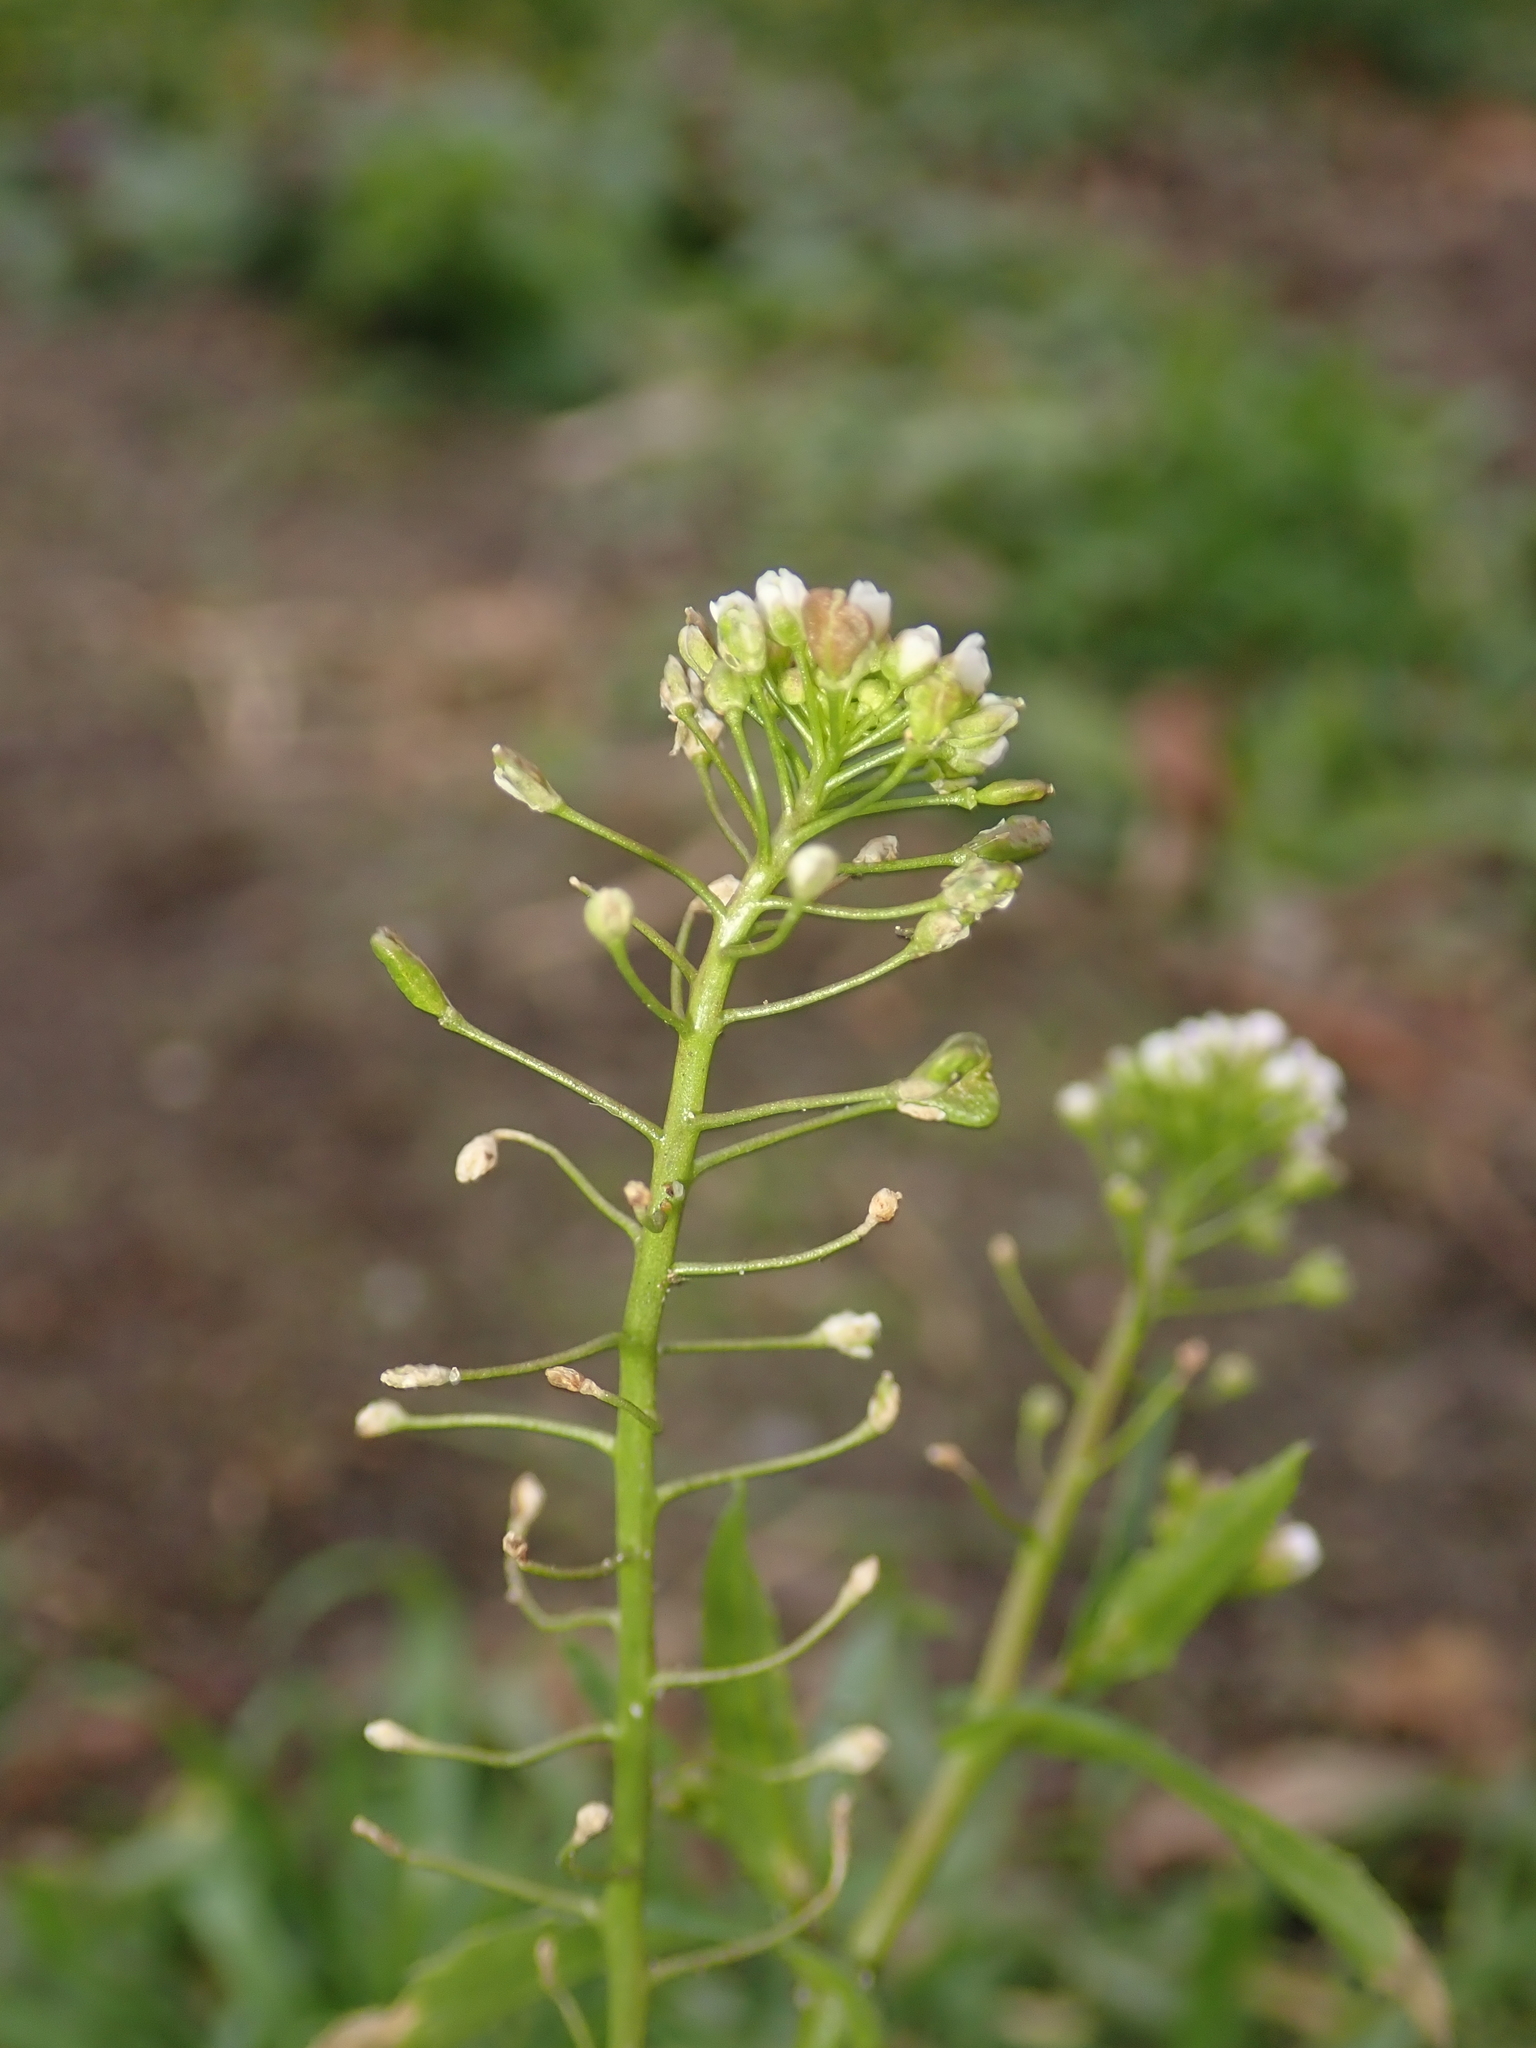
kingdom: Plantae
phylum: Tracheophyta
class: Magnoliopsida
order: Brassicales
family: Brassicaceae
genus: Capsella
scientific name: Capsella bursa-pastoris
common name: Shepherd's purse
